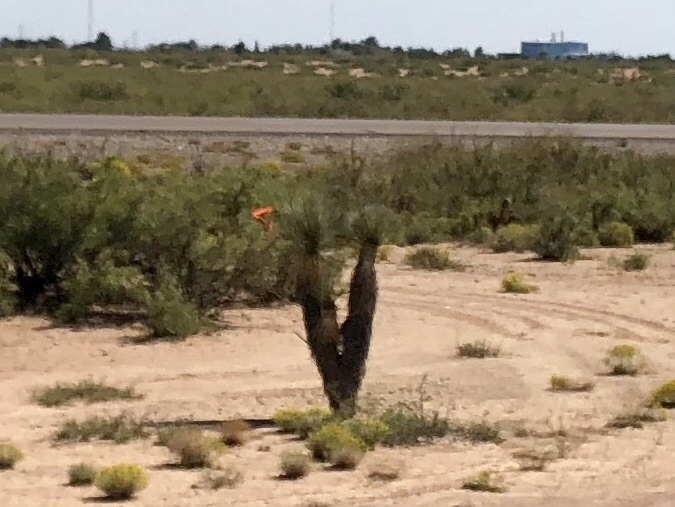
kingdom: Plantae
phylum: Tracheophyta
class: Liliopsida
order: Asparagales
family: Asparagaceae
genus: Yucca
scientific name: Yucca elata
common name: Palmella
